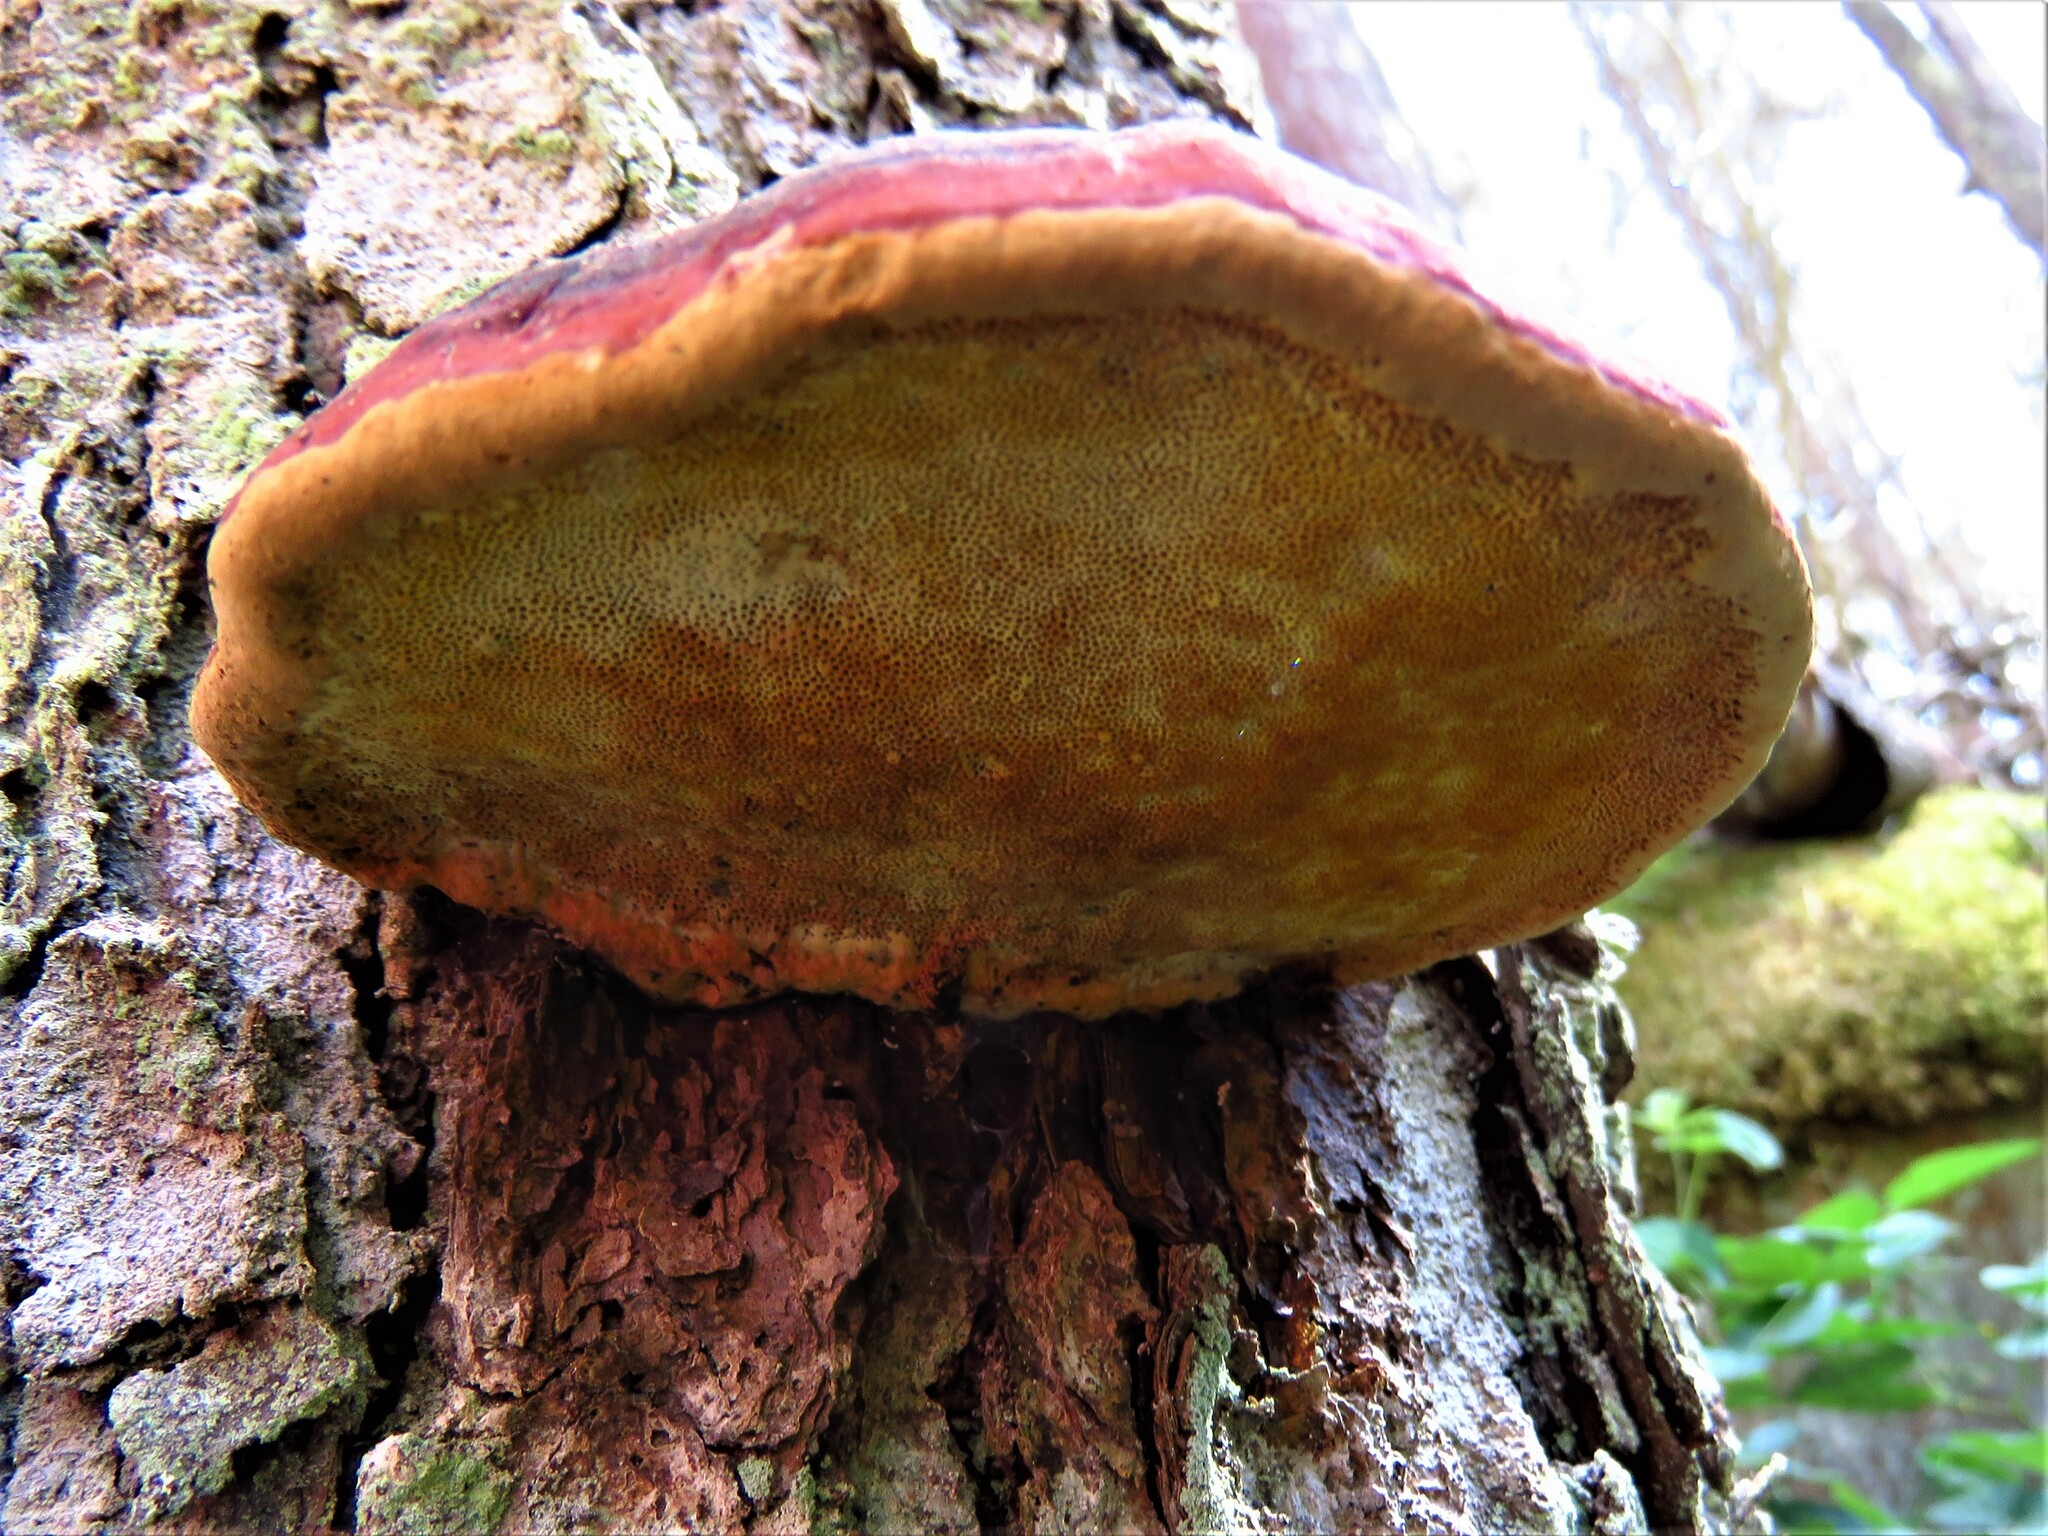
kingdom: Fungi
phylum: Basidiomycota
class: Agaricomycetes
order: Polyporales
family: Fomitopsidaceae
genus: Fomitopsis
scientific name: Fomitopsis pinicola
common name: Red-belted bracket
